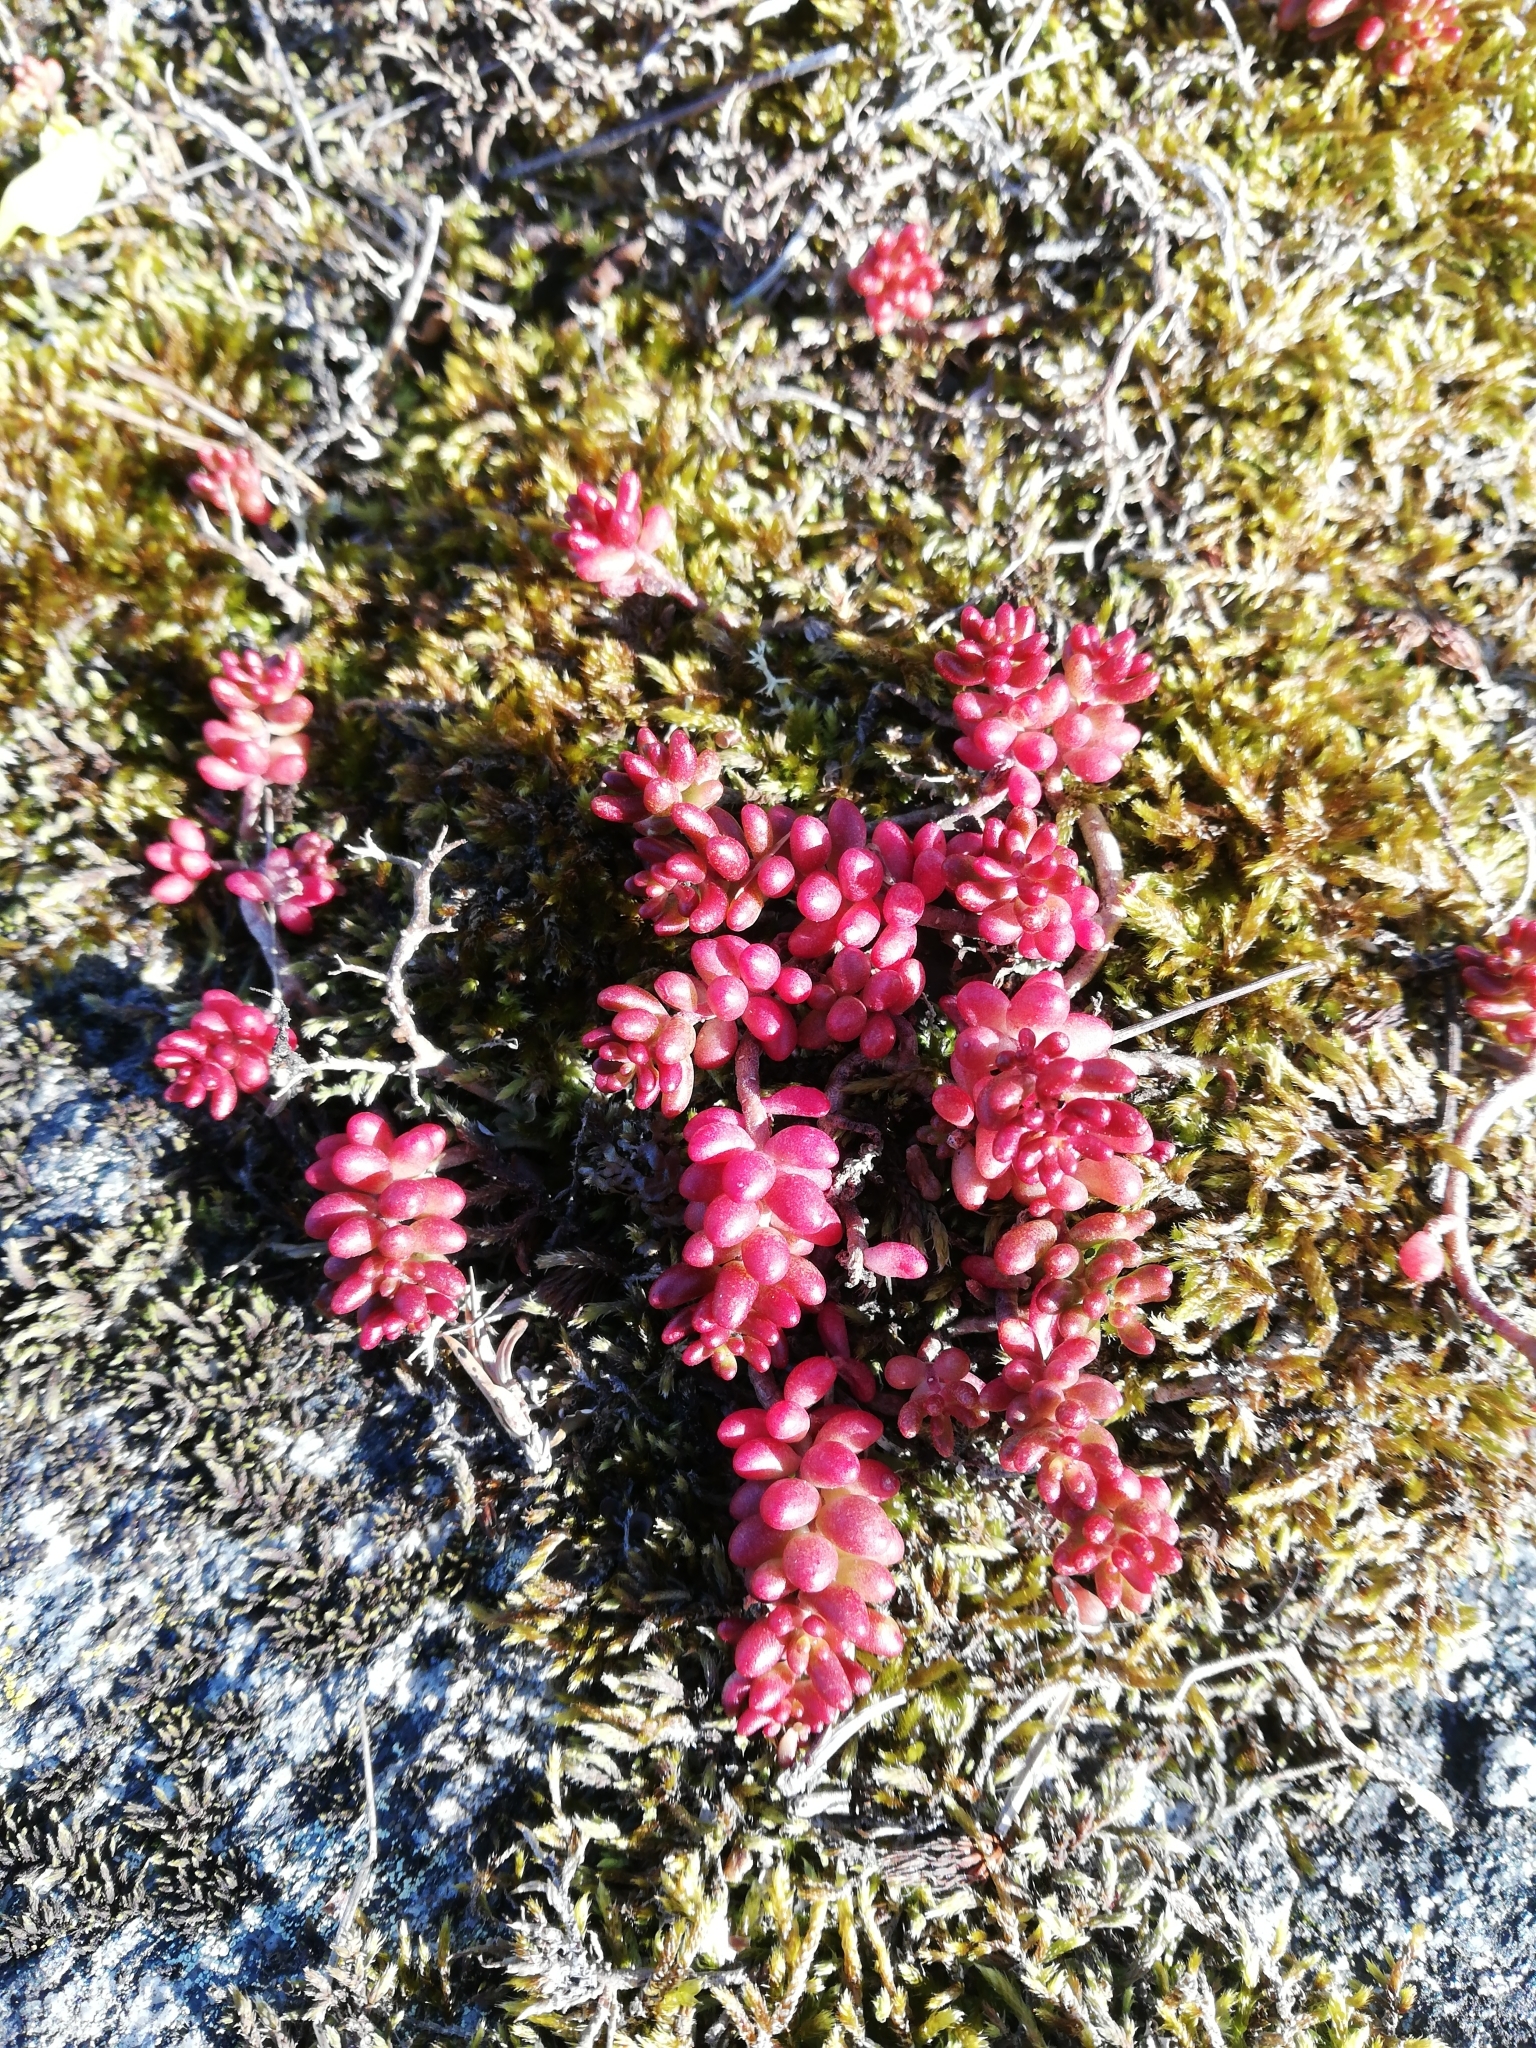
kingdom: Plantae
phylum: Tracheophyta
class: Magnoliopsida
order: Saxifragales
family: Crassulaceae
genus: Sedum
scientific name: Sedum album
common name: White stonecrop
